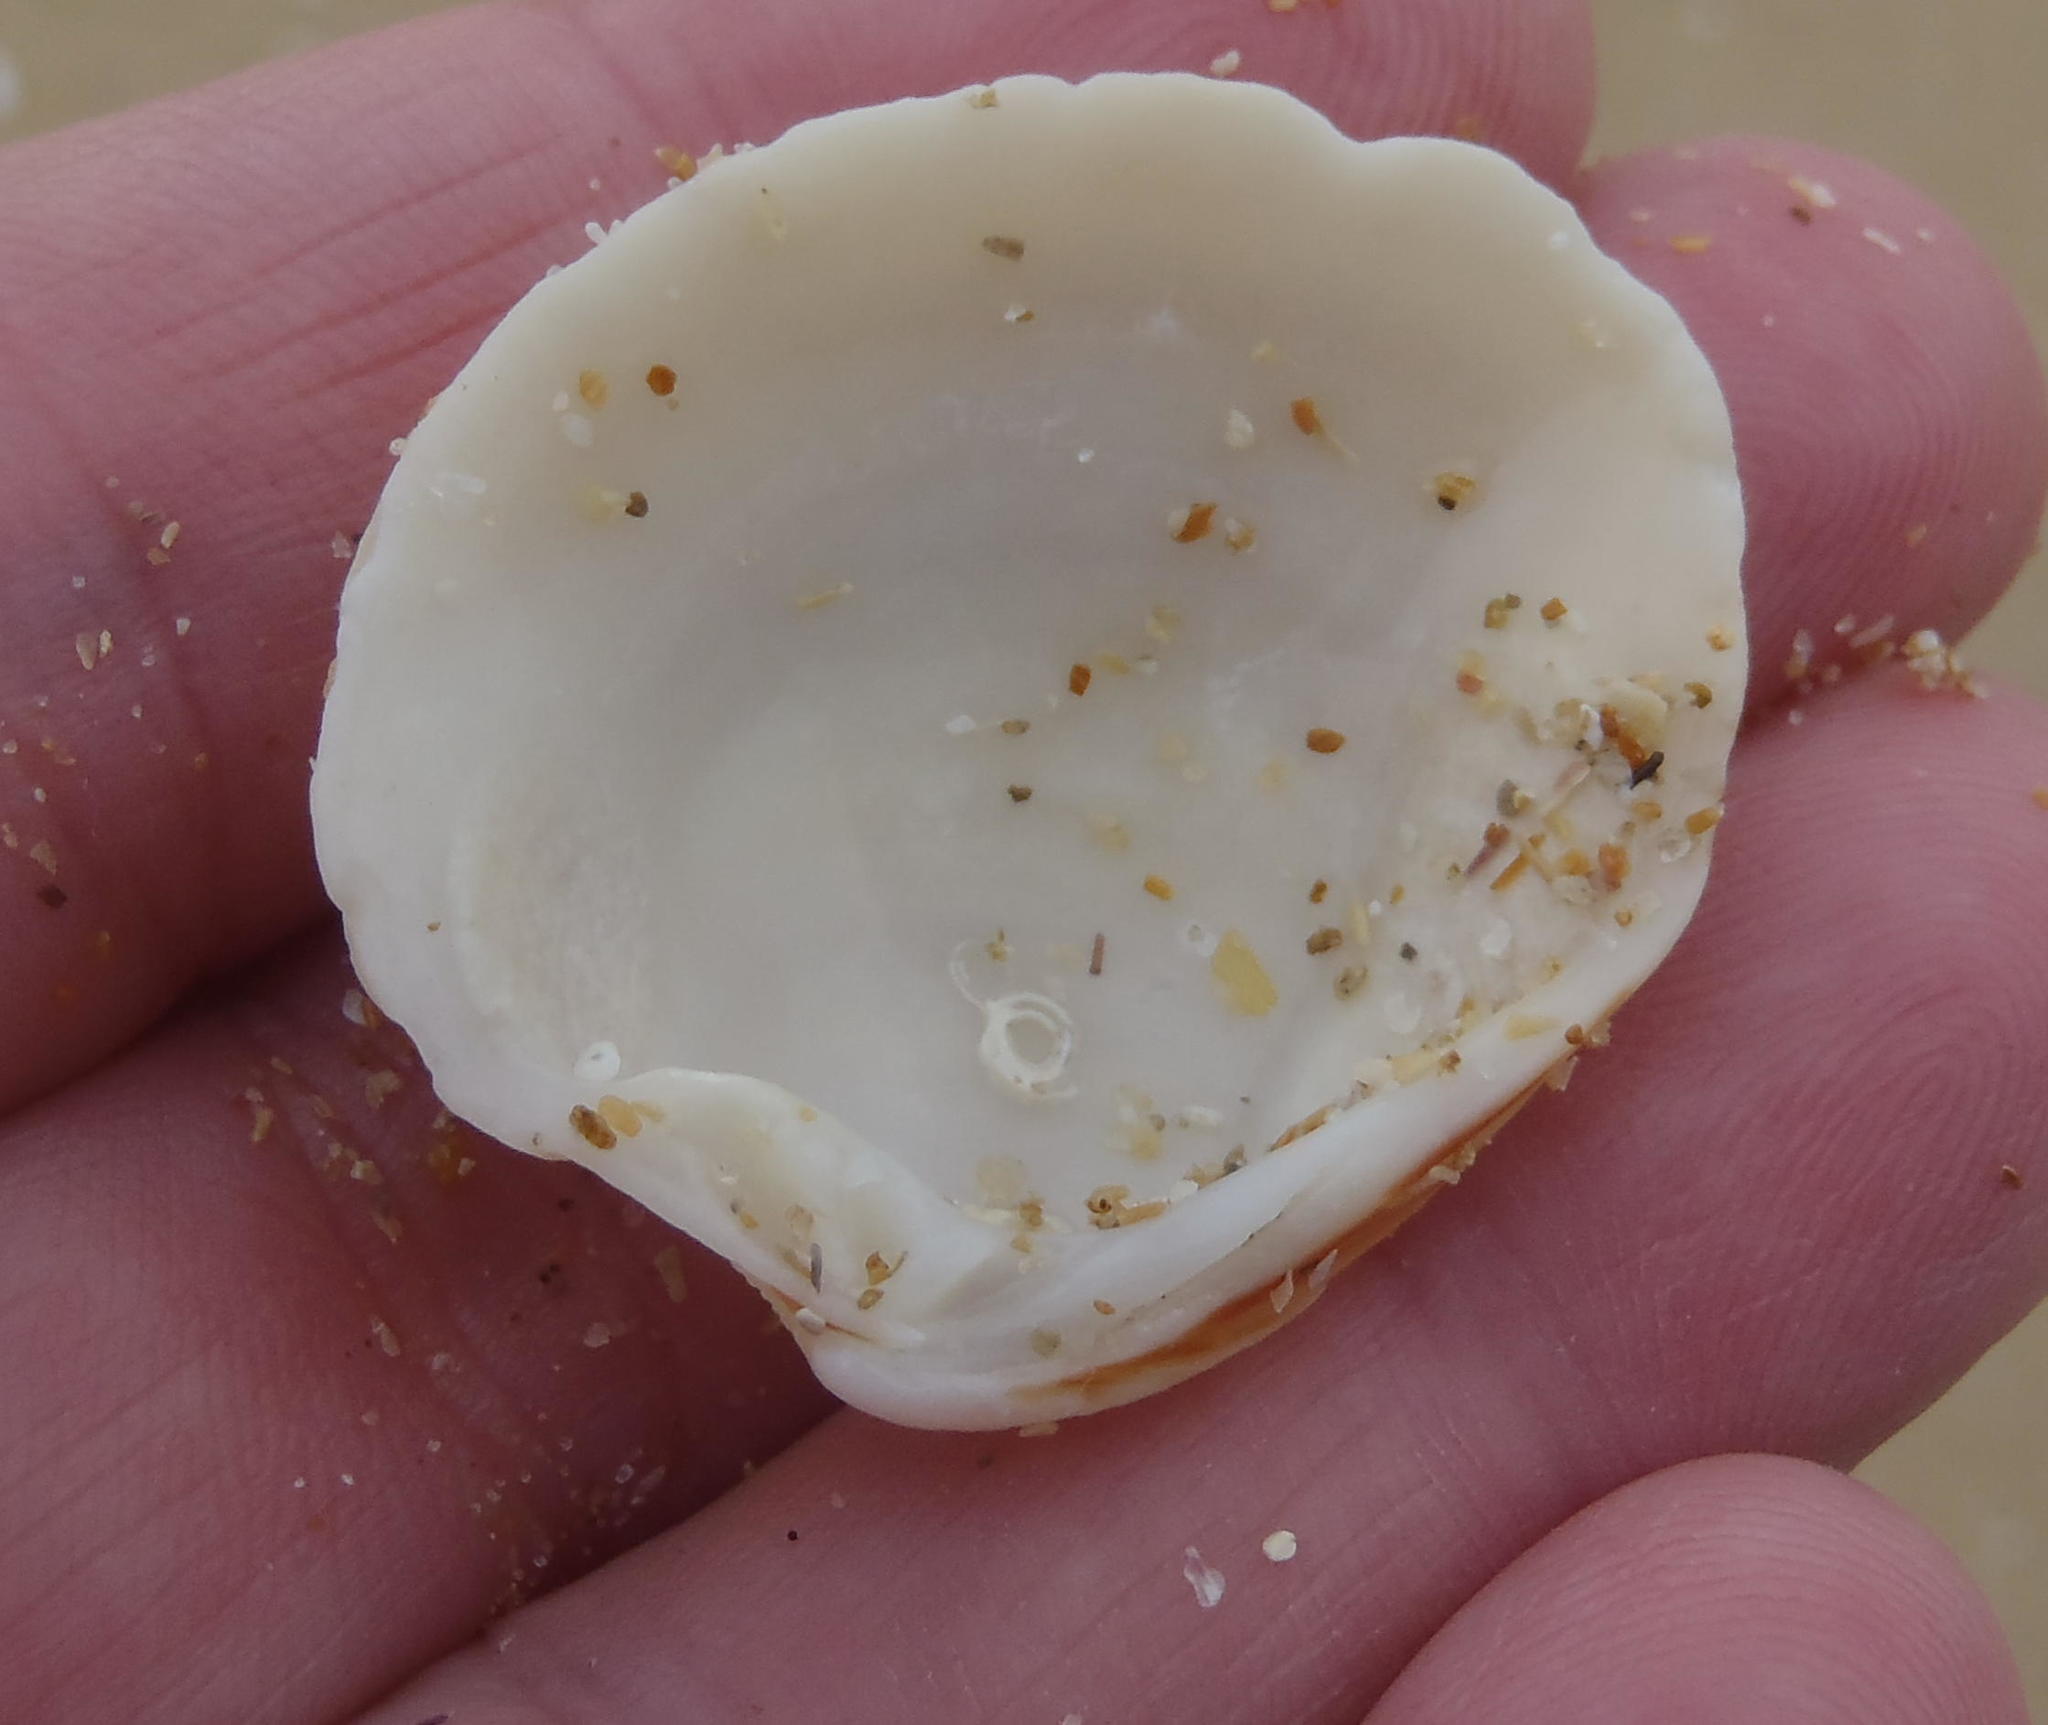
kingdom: Animalia
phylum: Mollusca
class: Bivalvia
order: Venerida
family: Veneridae
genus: Venus
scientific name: Venus verrucosa
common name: Warty venus
